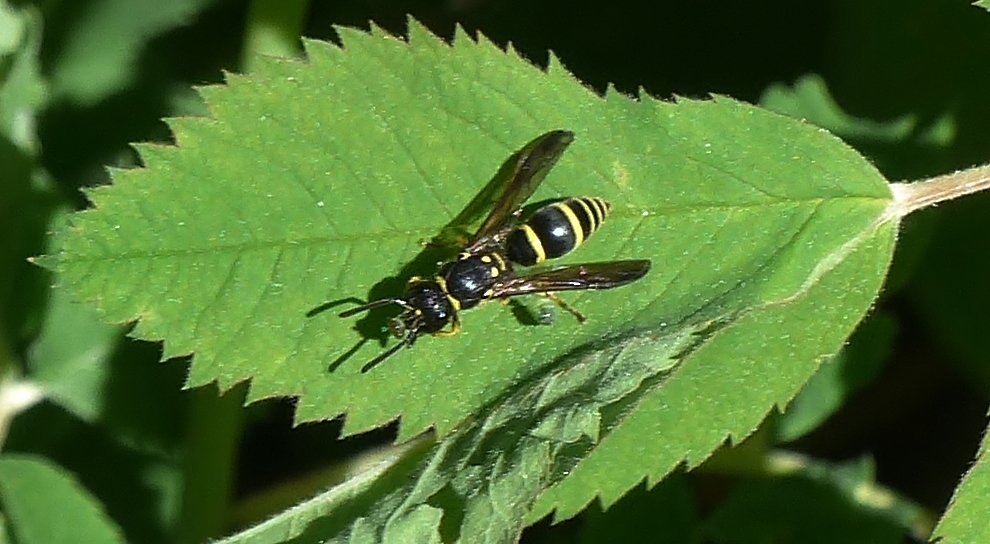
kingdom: Animalia
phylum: Arthropoda
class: Insecta
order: Hymenoptera
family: Vespidae
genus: Ancistrocerus
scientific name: Ancistrocerus adiabatus
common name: Bramble mason wasp
